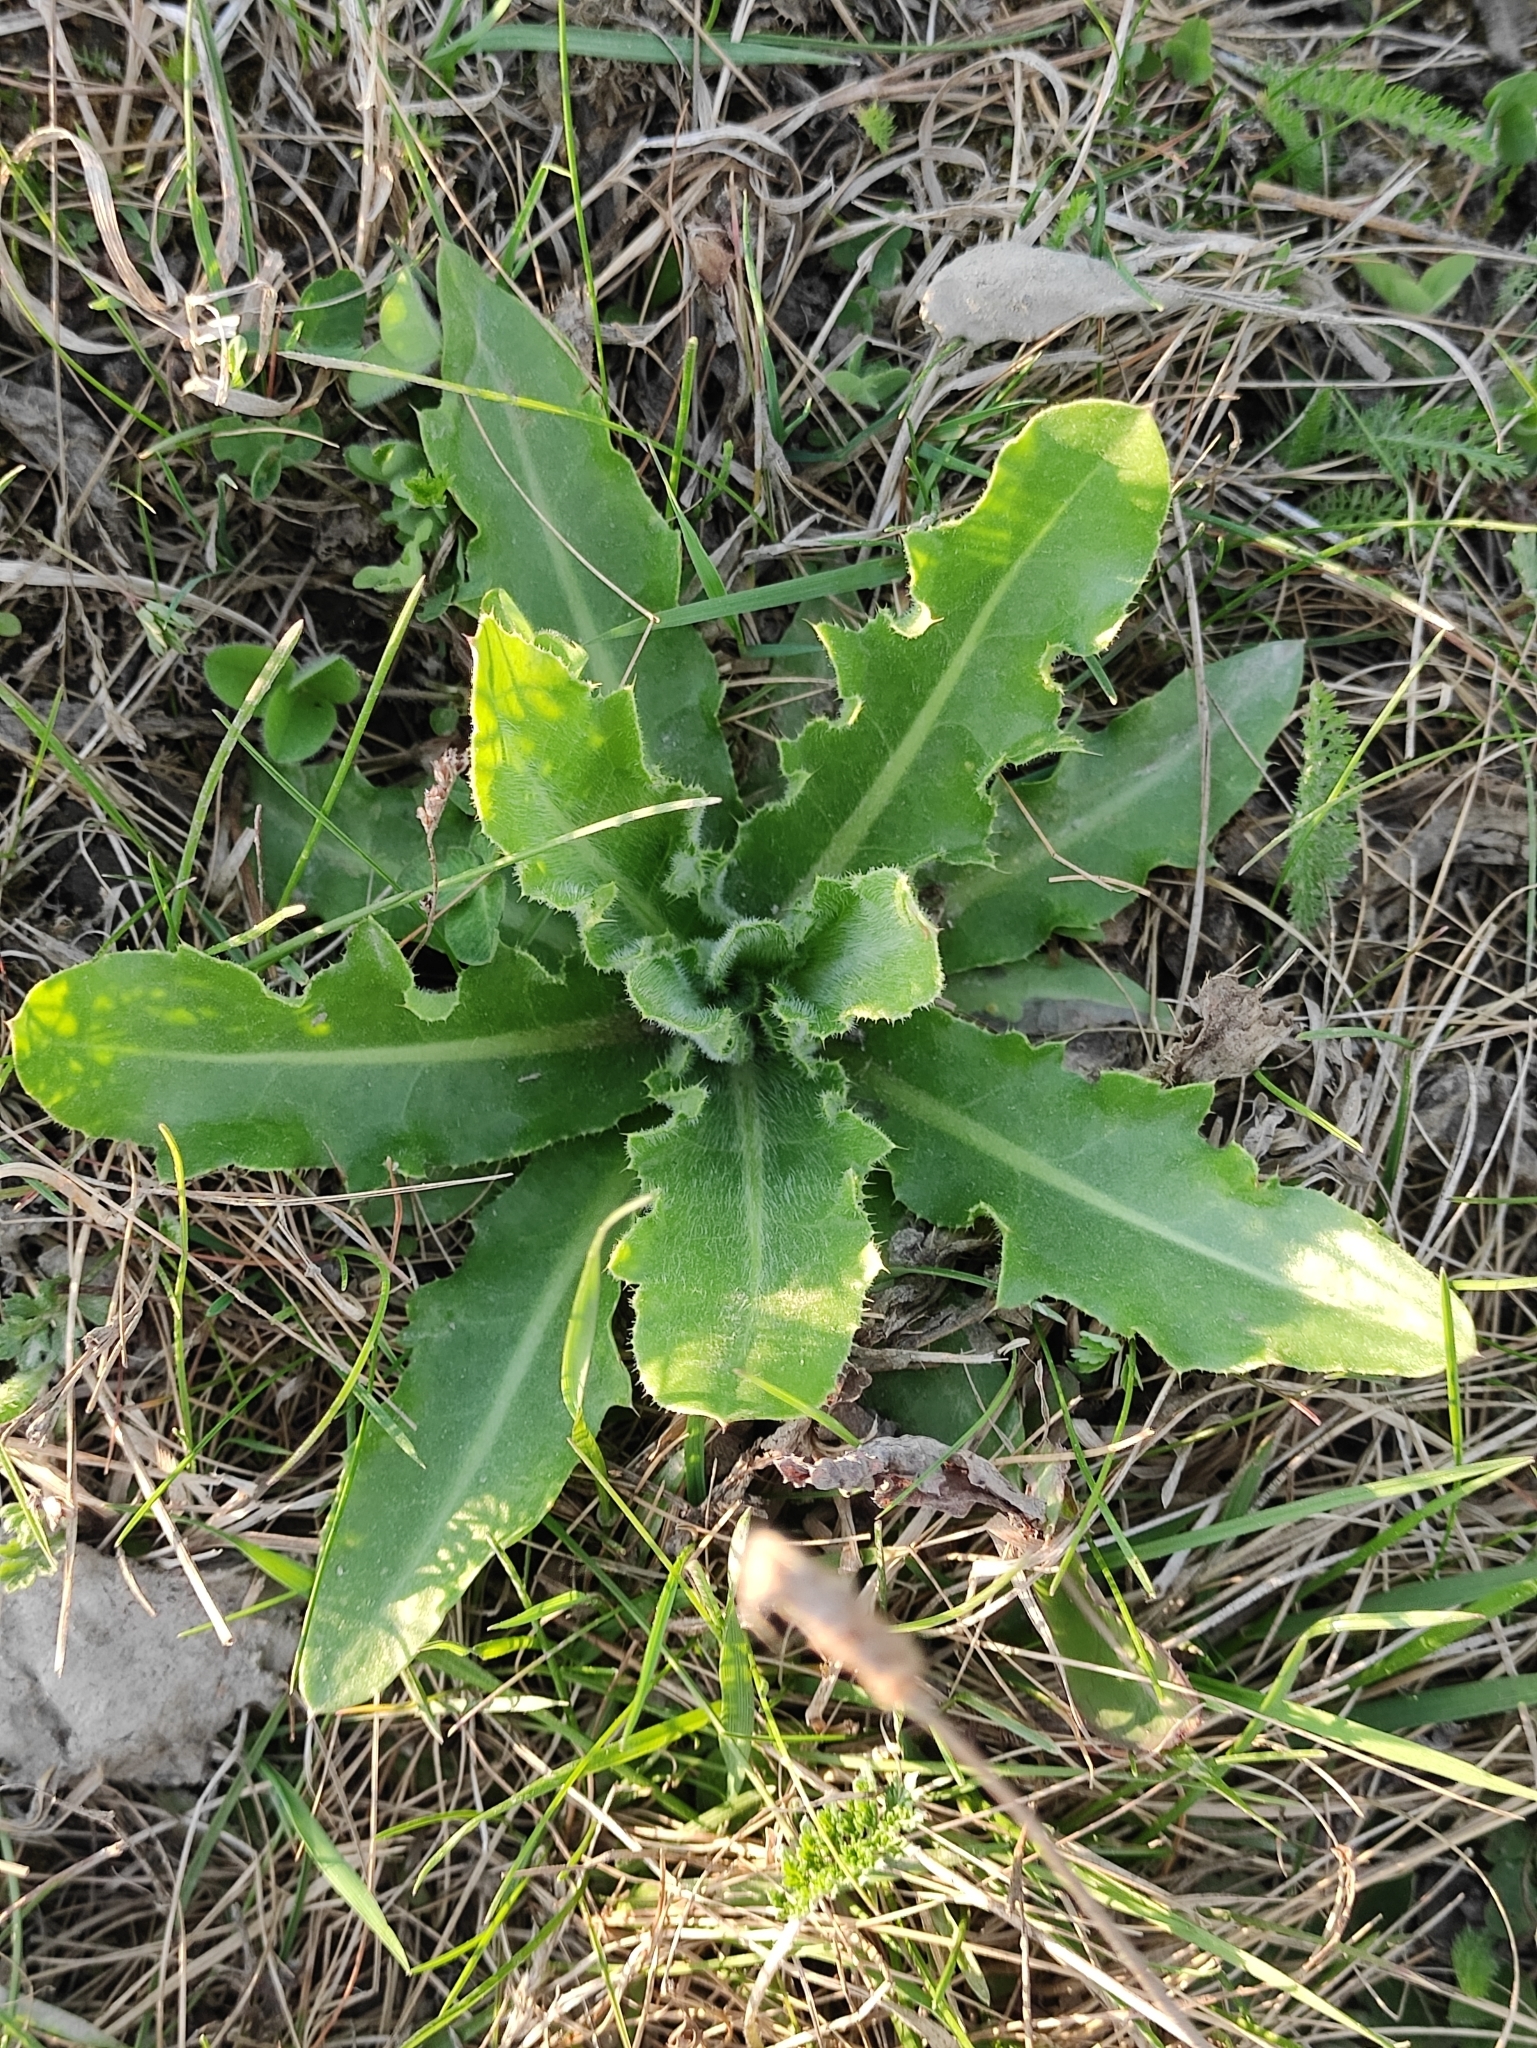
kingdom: Plantae
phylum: Tracheophyta
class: Magnoliopsida
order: Asterales
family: Asteraceae
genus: Cirsium
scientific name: Cirsium esculentum
